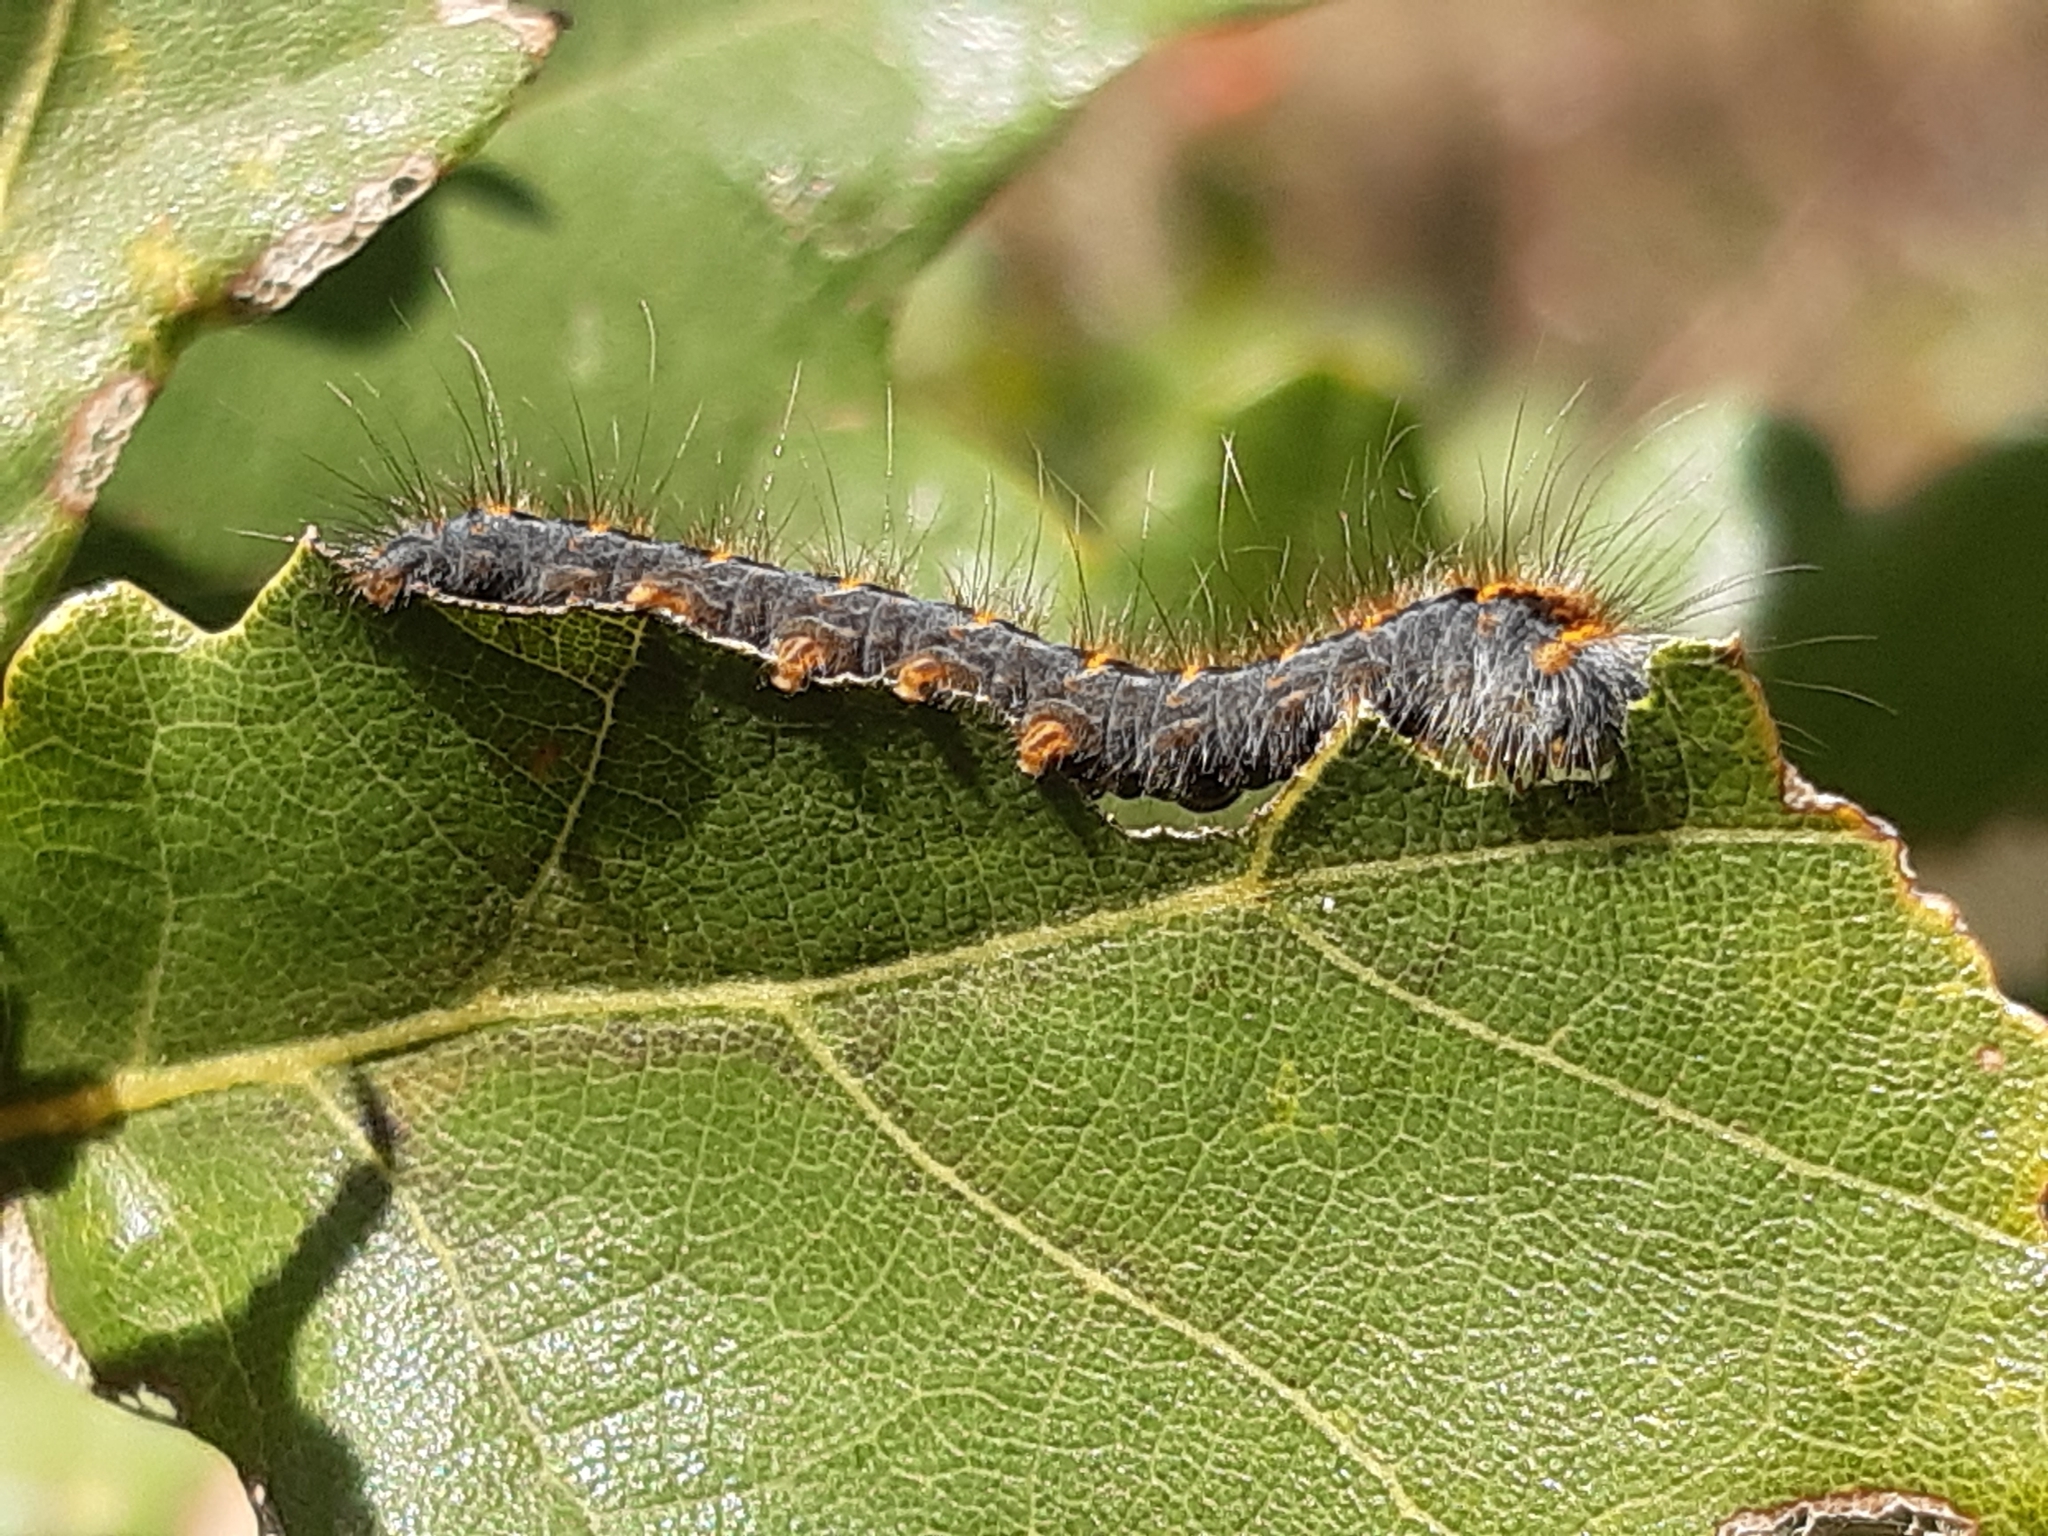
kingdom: Animalia
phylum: Arthropoda
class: Insecta
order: Lepidoptera
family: Lasiocampidae
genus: Lasiocampa
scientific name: Lasiocampa quercus
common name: Oak eggar
